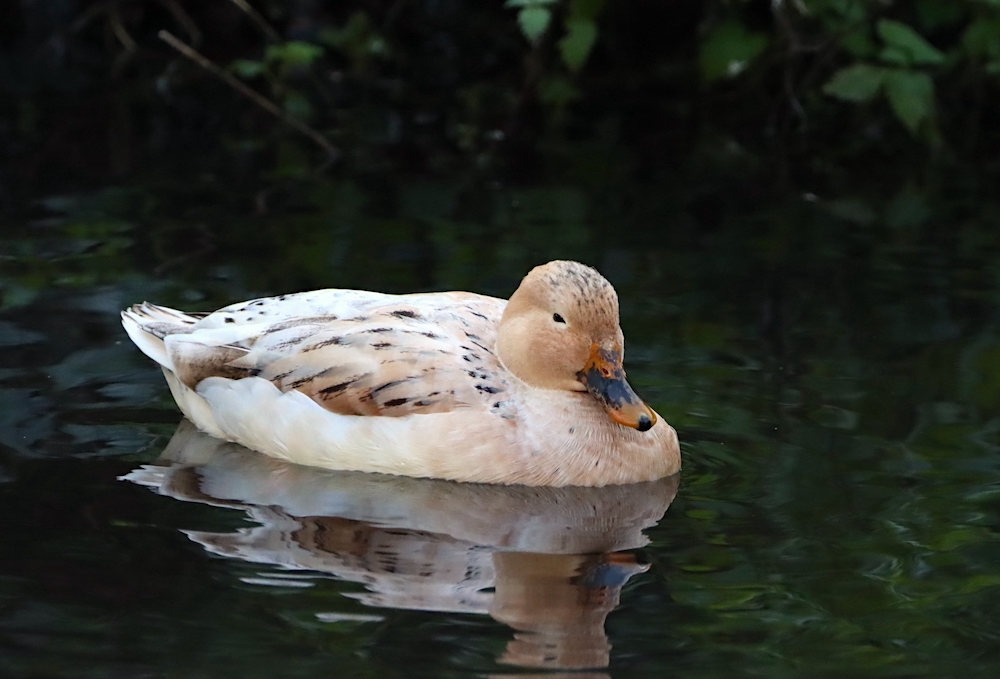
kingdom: Animalia
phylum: Chordata
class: Aves
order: Anseriformes
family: Anatidae
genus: Anas
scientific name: Anas platyrhynchos
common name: Mallard
